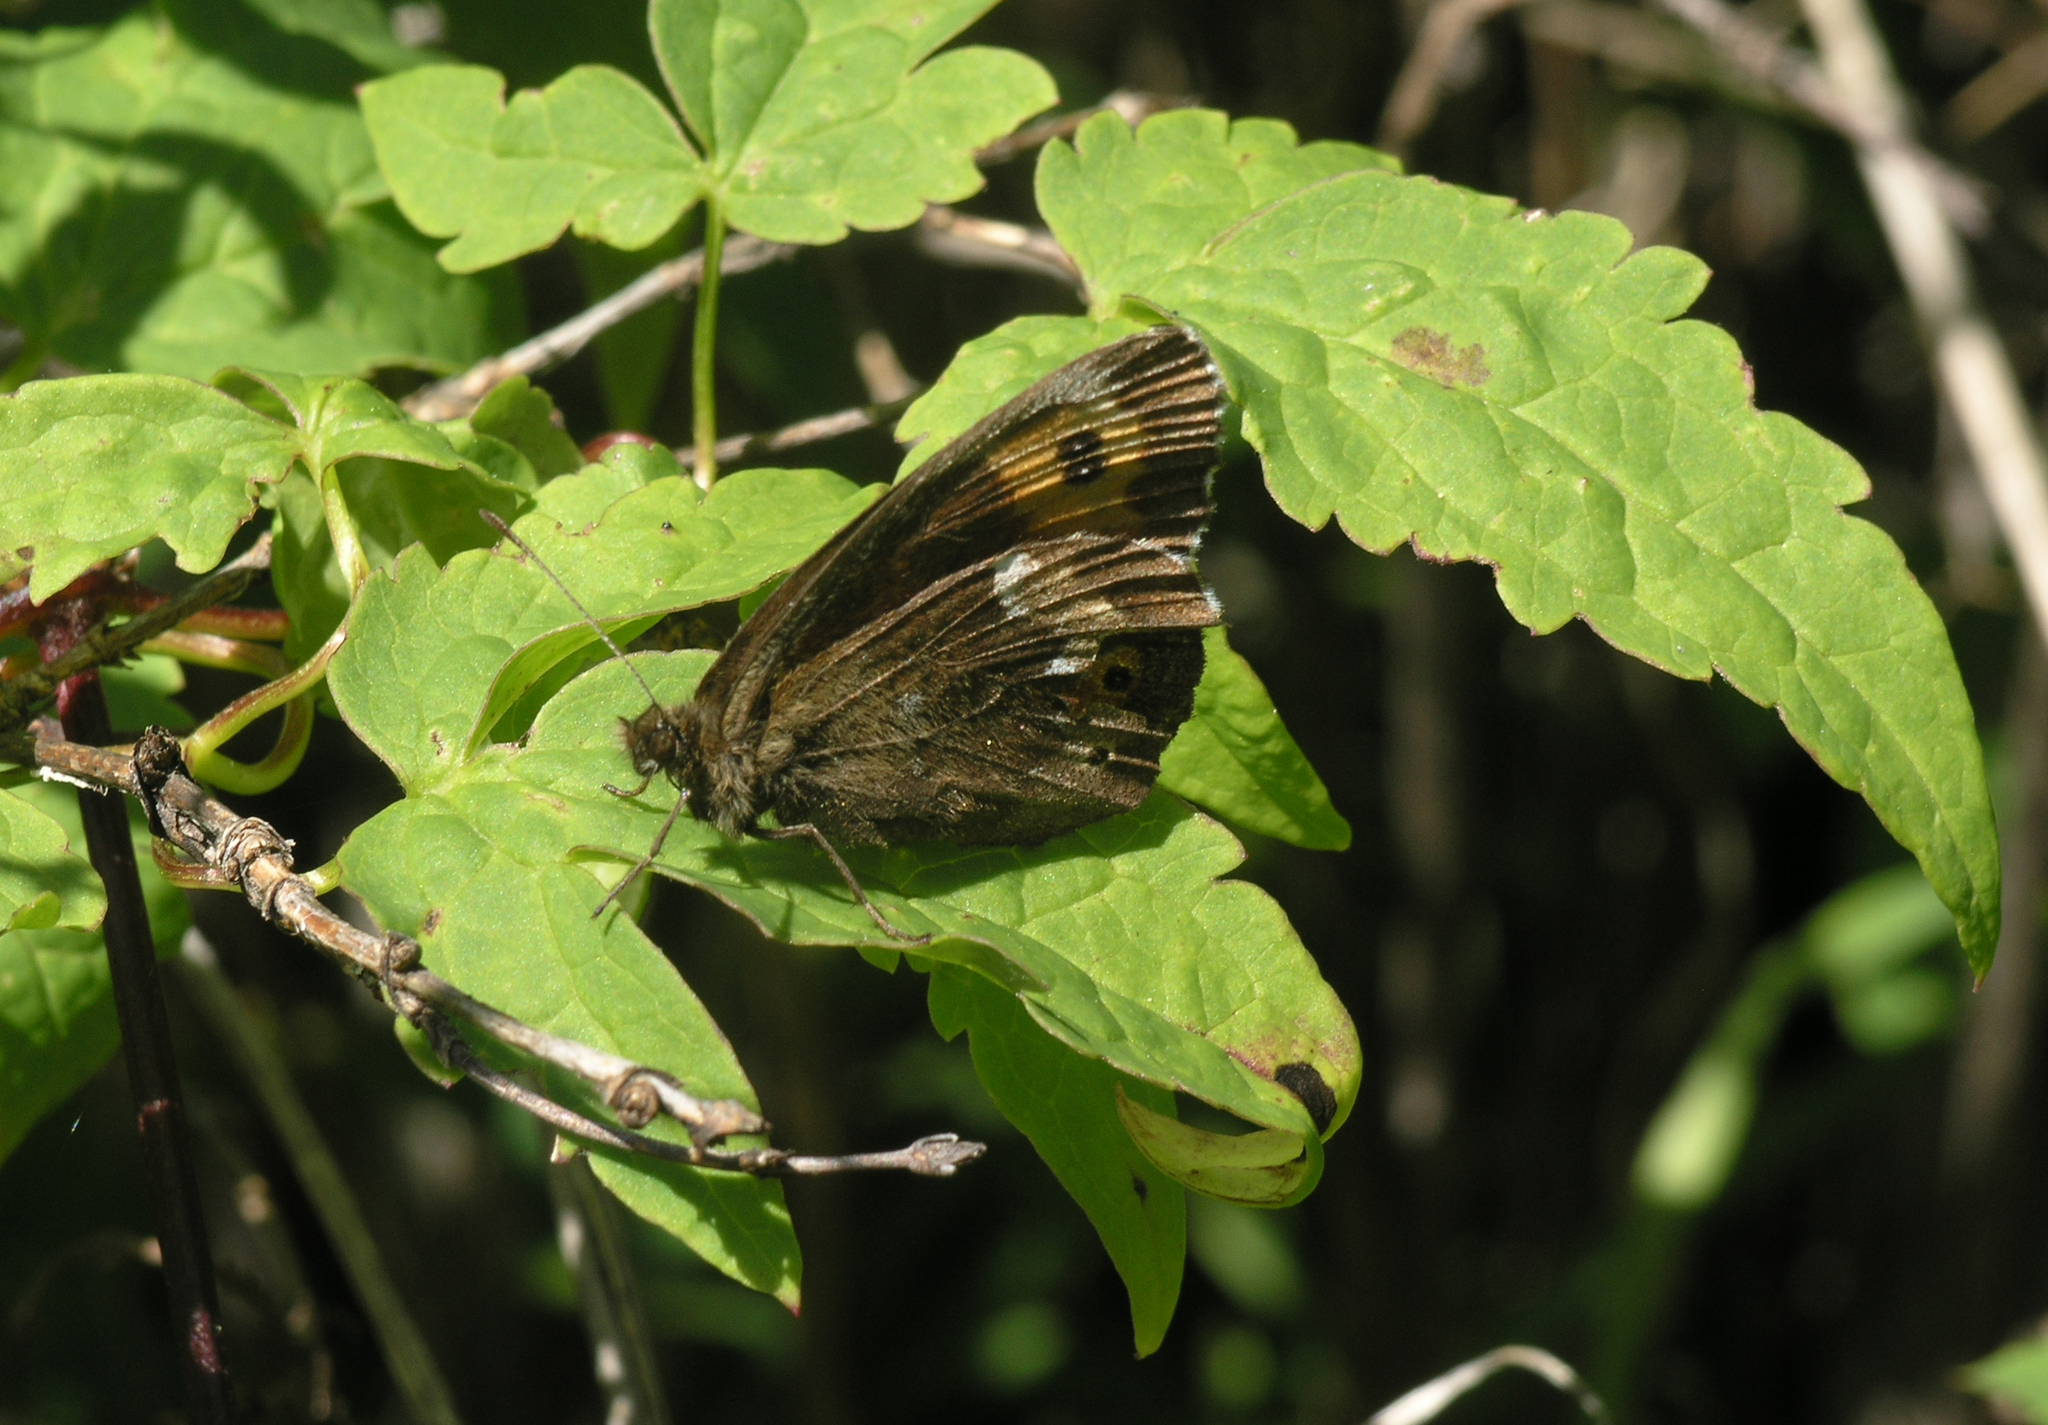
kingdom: Animalia
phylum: Arthropoda
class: Insecta
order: Lepidoptera
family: Nymphalidae
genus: Erebia
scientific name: Erebia ligea
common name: Arran brown
